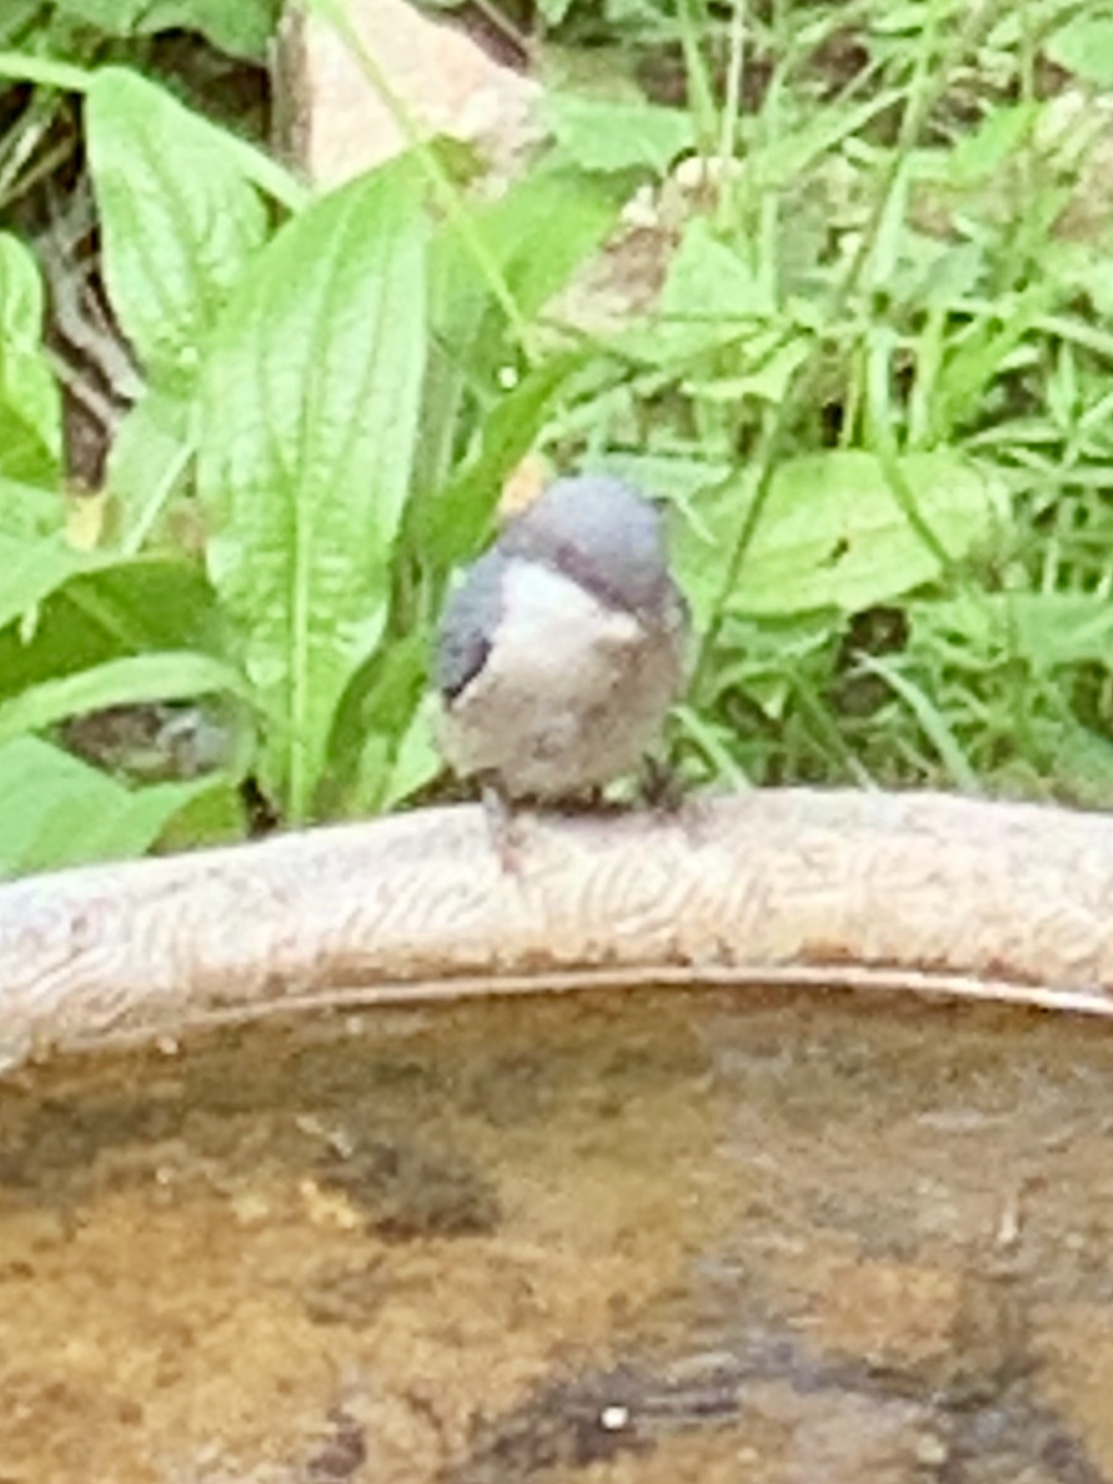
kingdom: Animalia
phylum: Chordata
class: Aves
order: Passeriformes
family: Sittidae
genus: Sitta
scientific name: Sitta pygmaea
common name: Pygmy nuthatch
